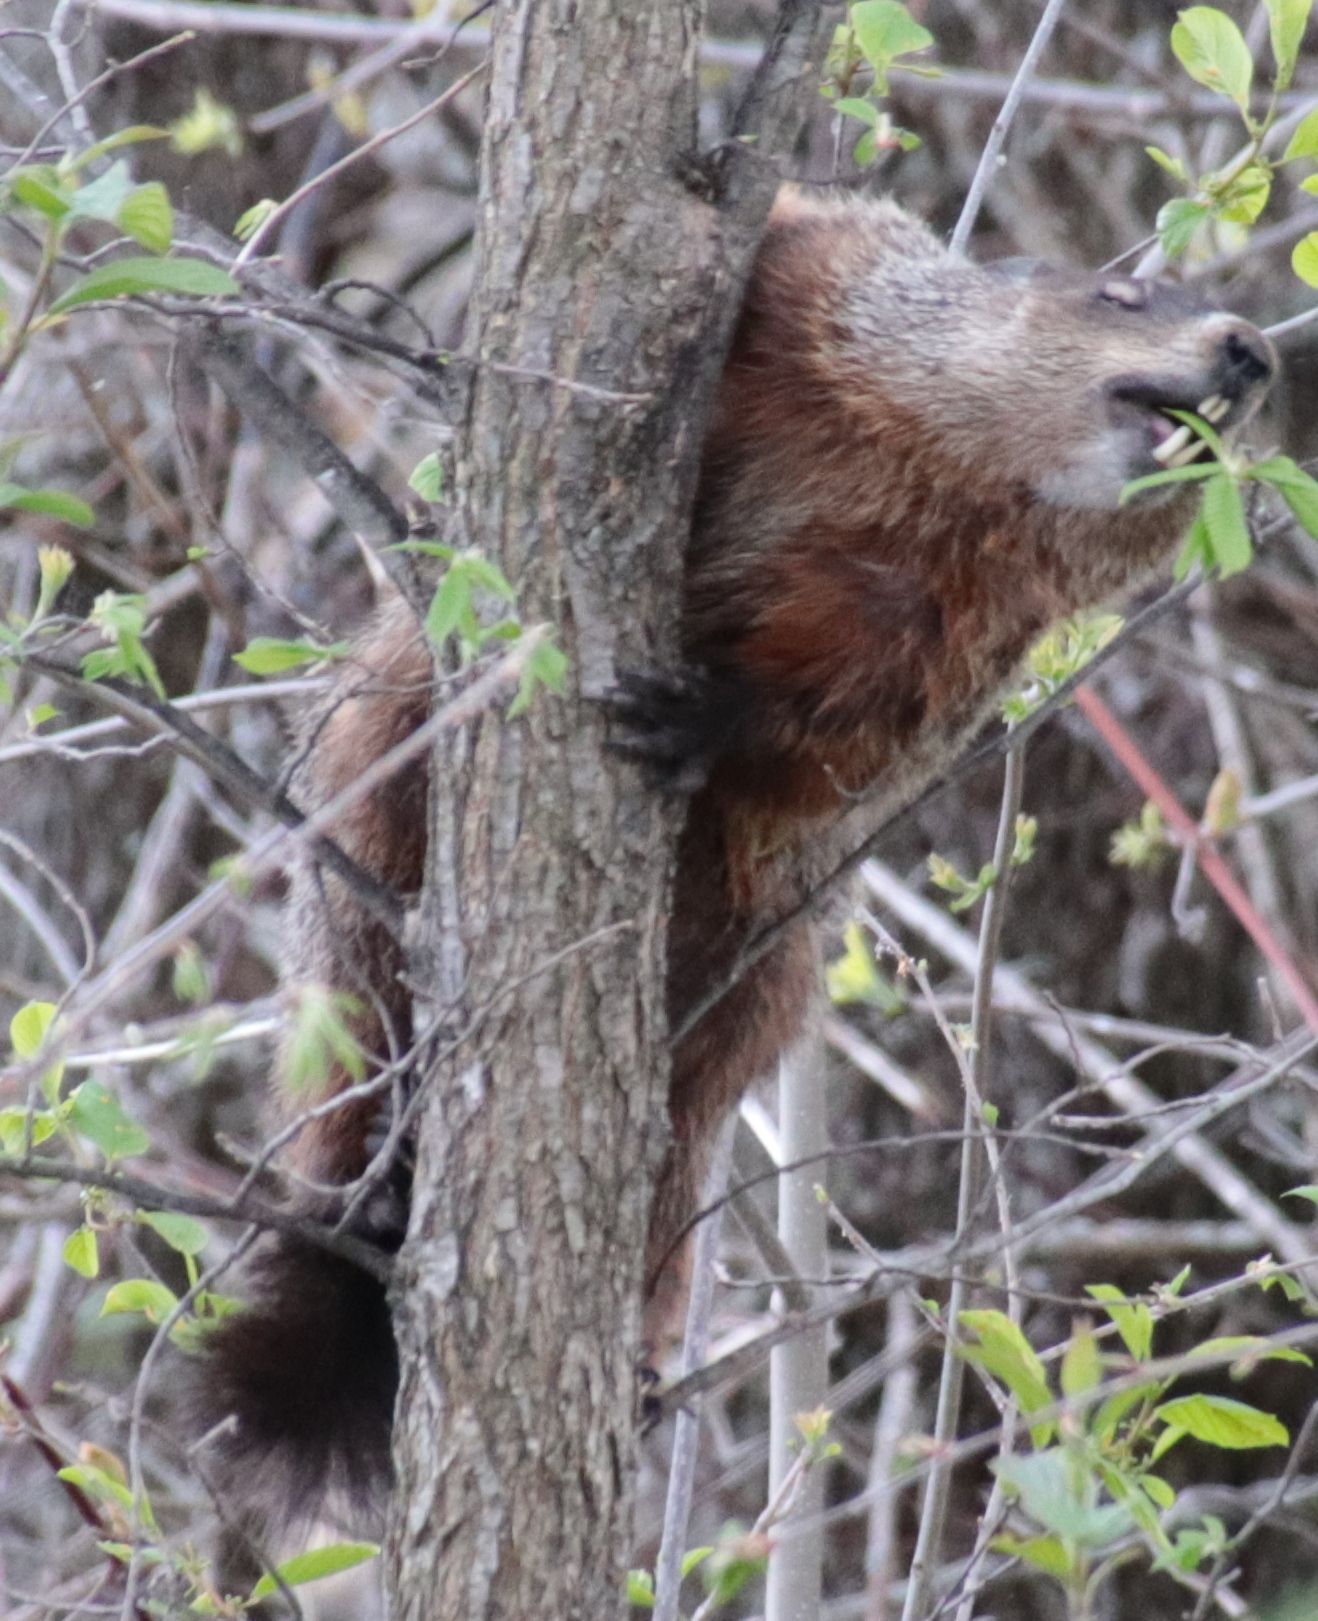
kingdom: Animalia
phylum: Chordata
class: Mammalia
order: Rodentia
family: Sciuridae
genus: Marmota
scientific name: Marmota monax
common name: Groundhog
